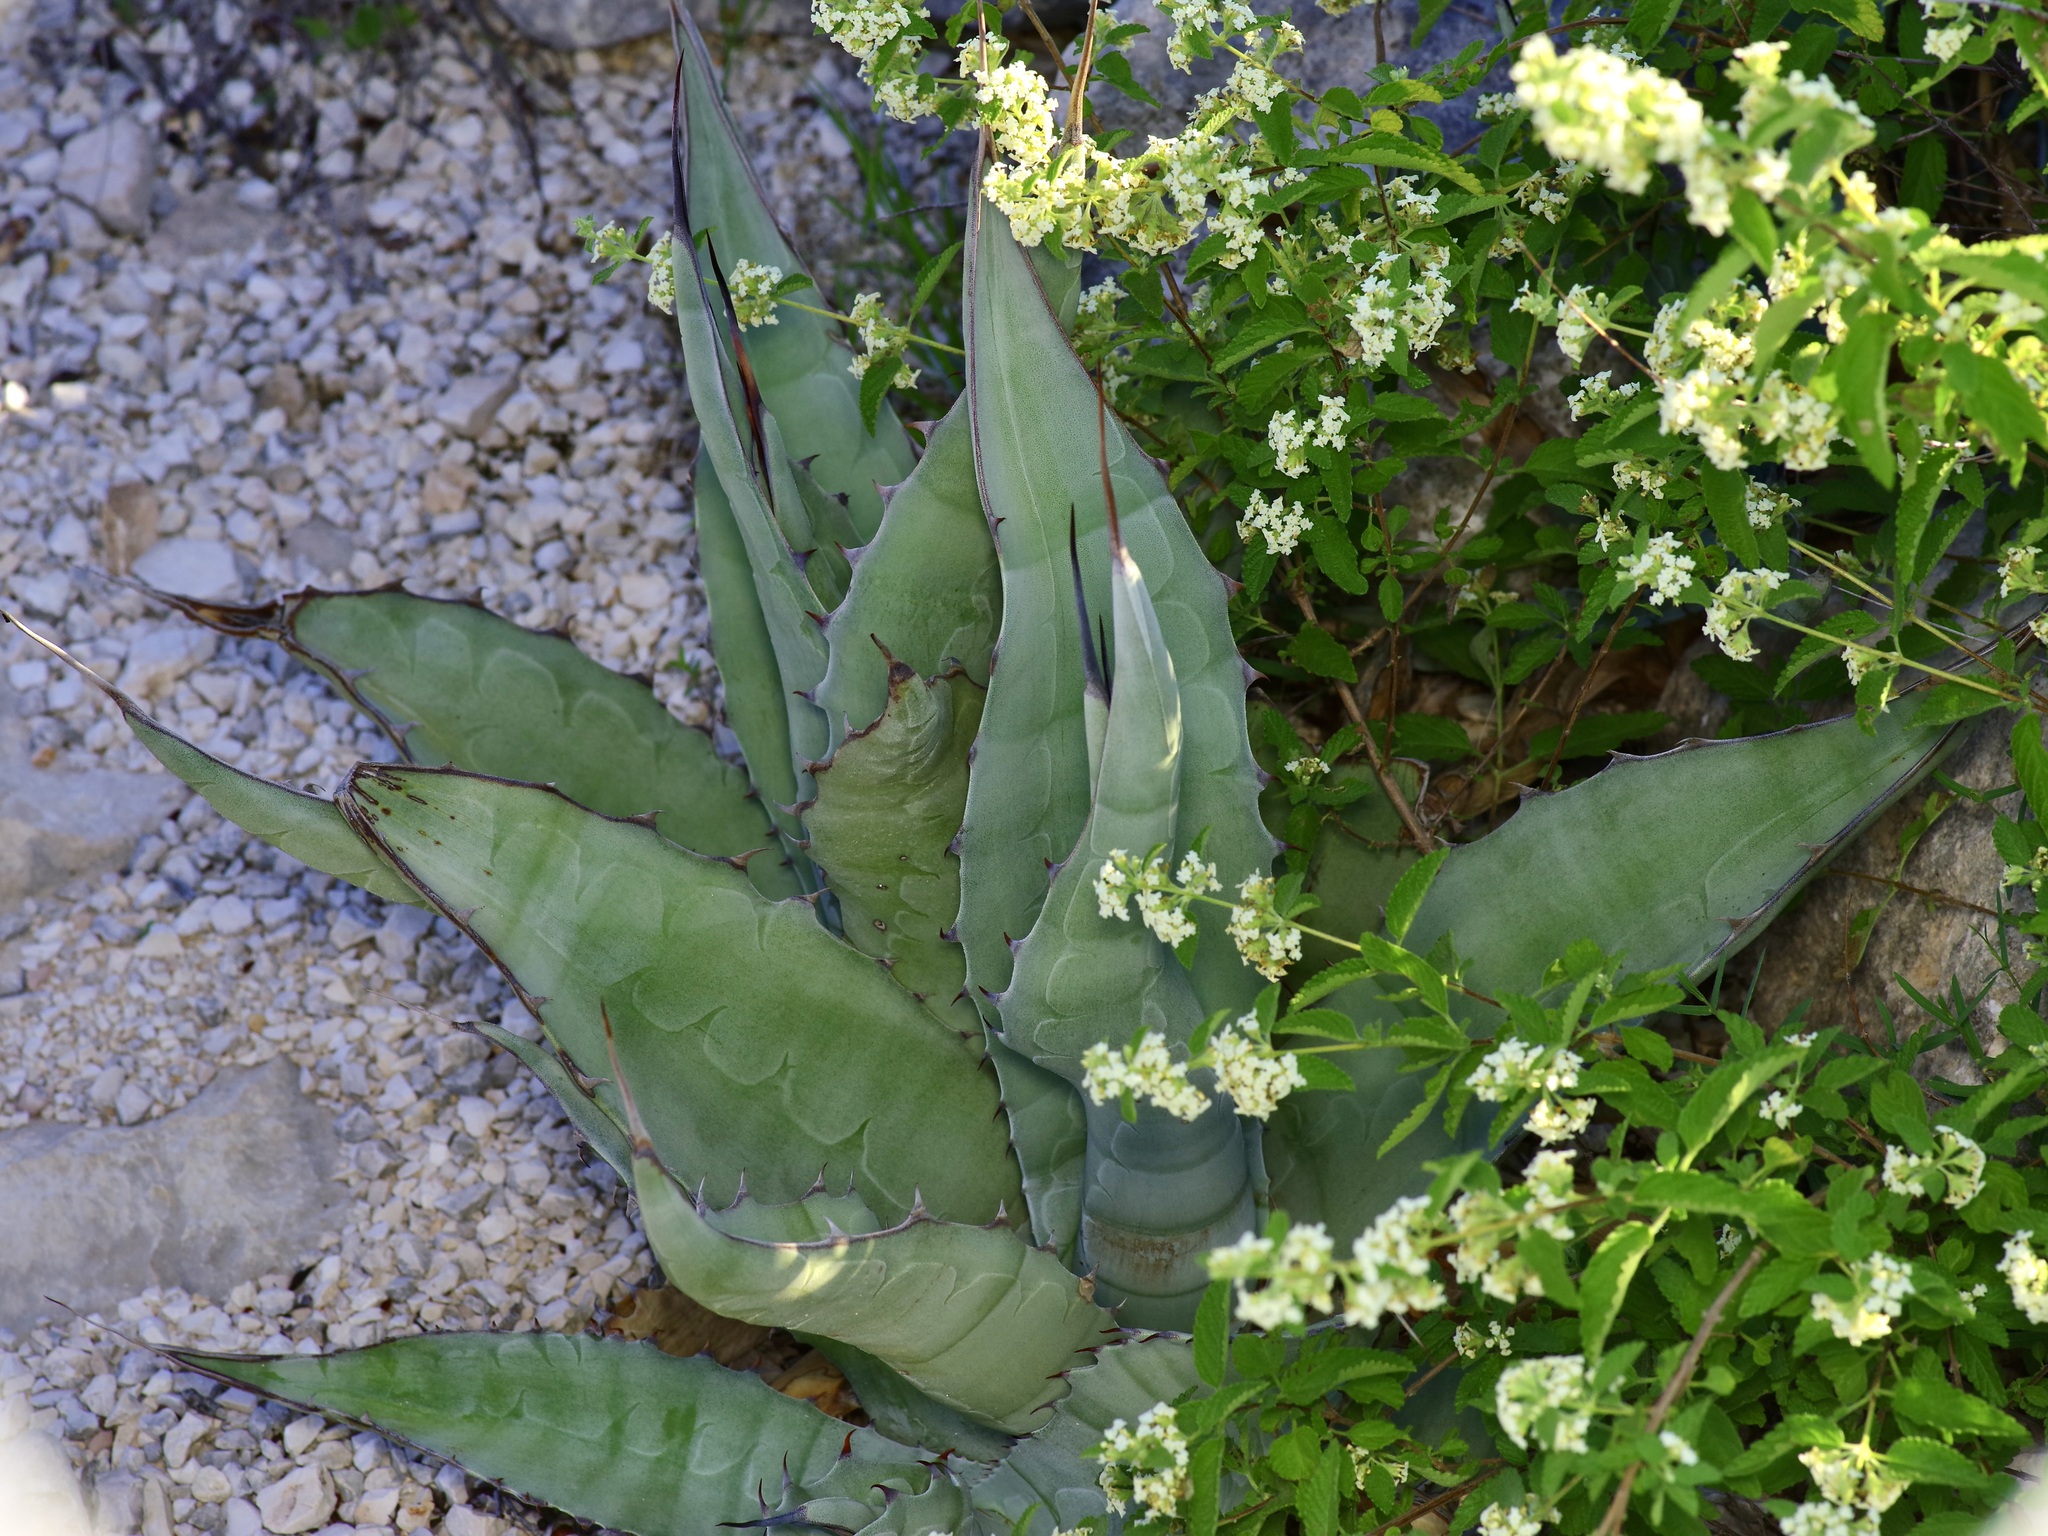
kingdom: Plantae
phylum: Tracheophyta
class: Liliopsida
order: Asparagales
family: Asparagaceae
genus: Agave
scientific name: Agave asperrima
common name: Rough agave
